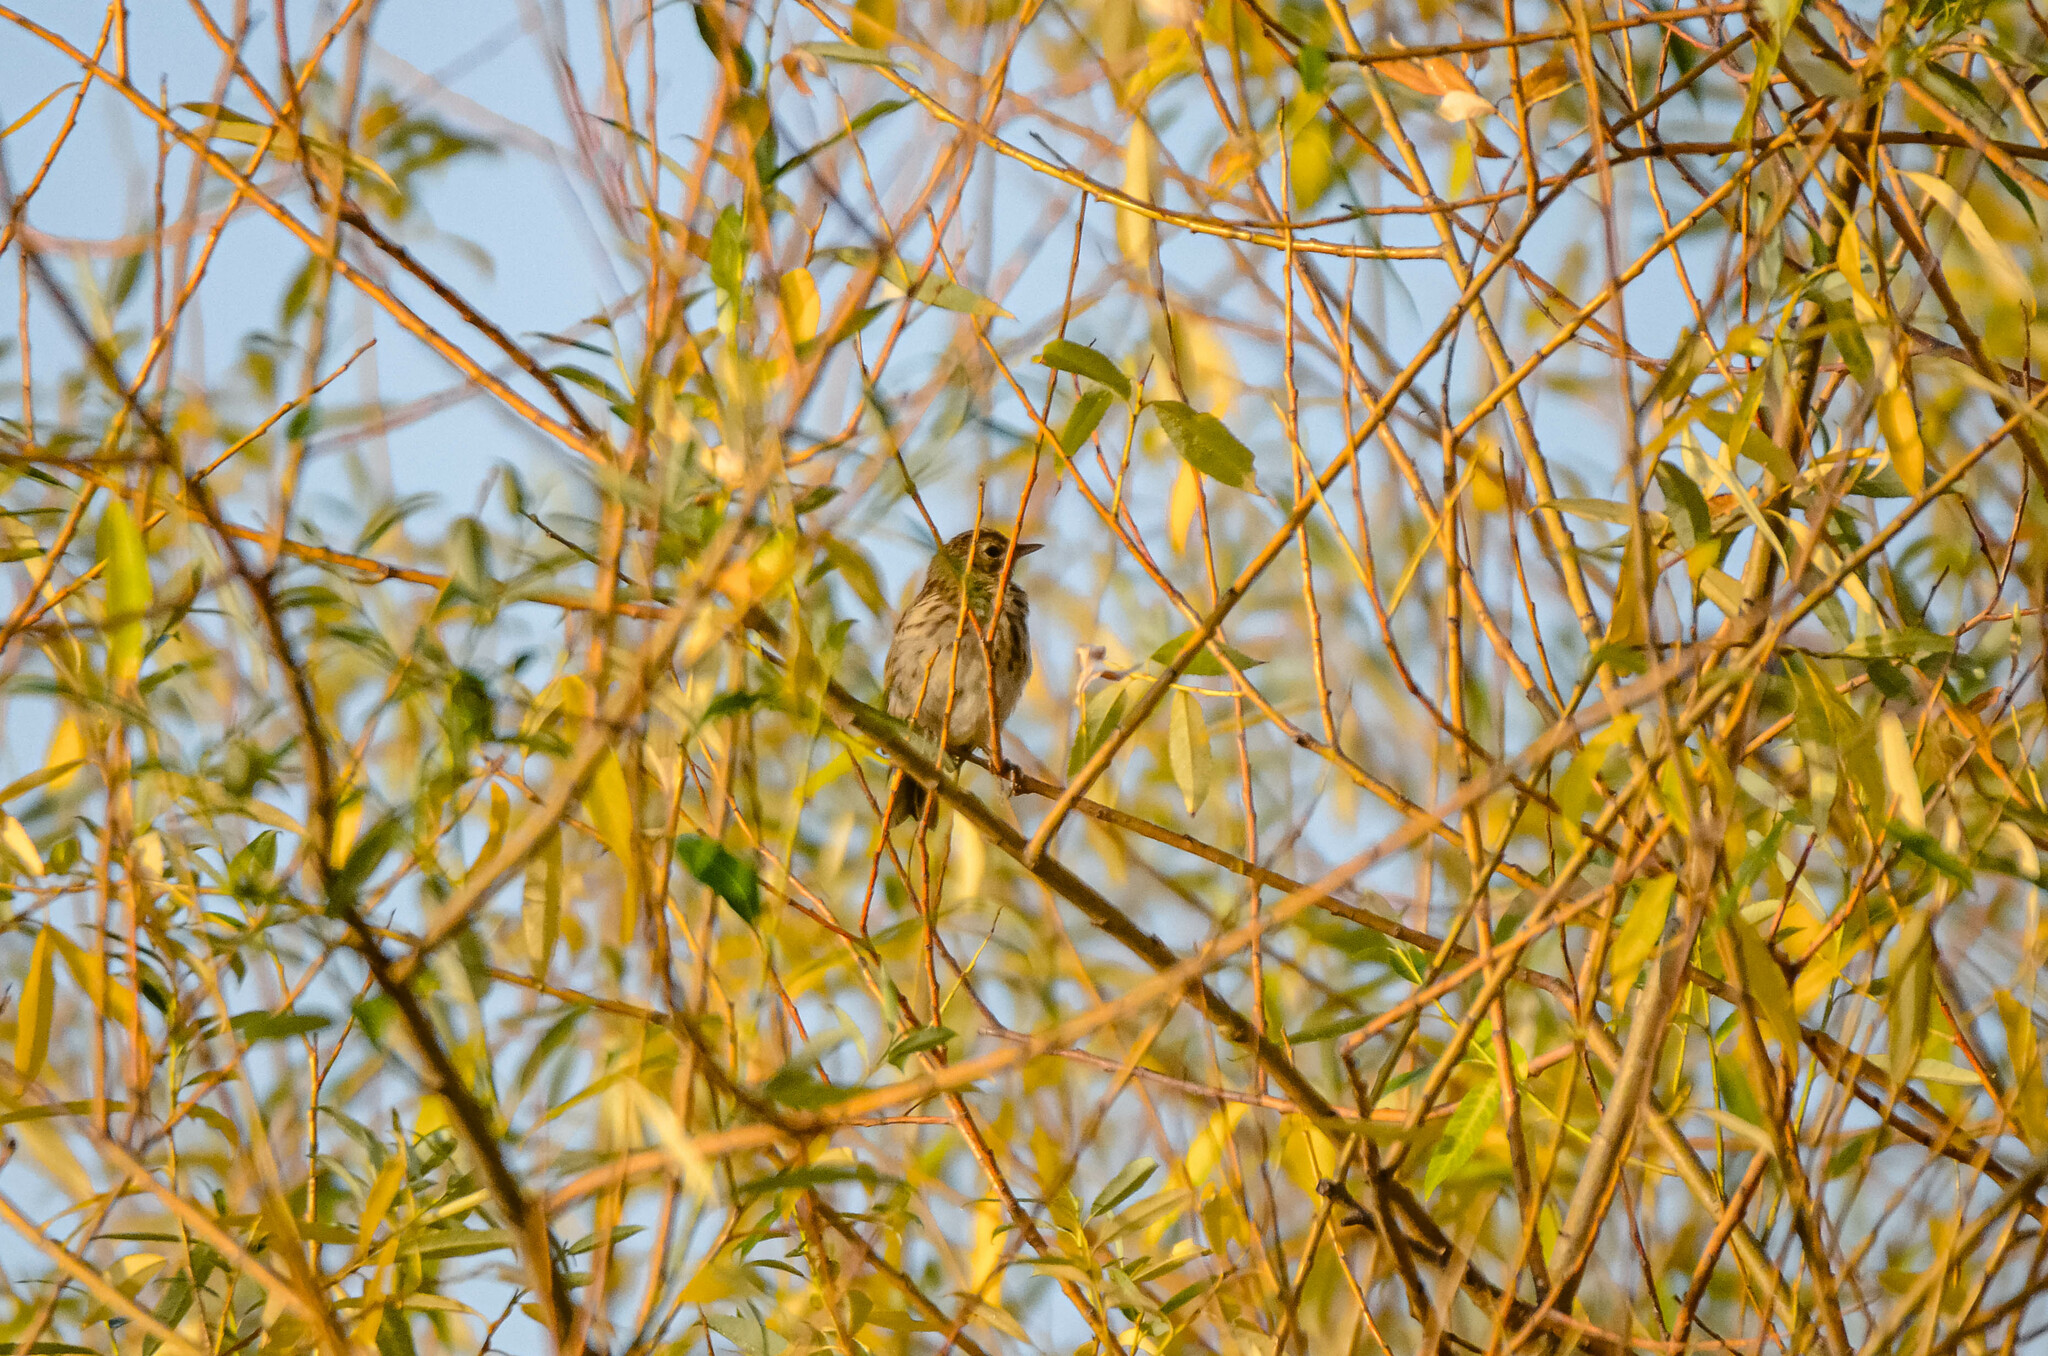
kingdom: Animalia
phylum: Chordata
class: Aves
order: Passeriformes
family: Motacillidae
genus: Anthus
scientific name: Anthus trivialis
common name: Tree pipit
